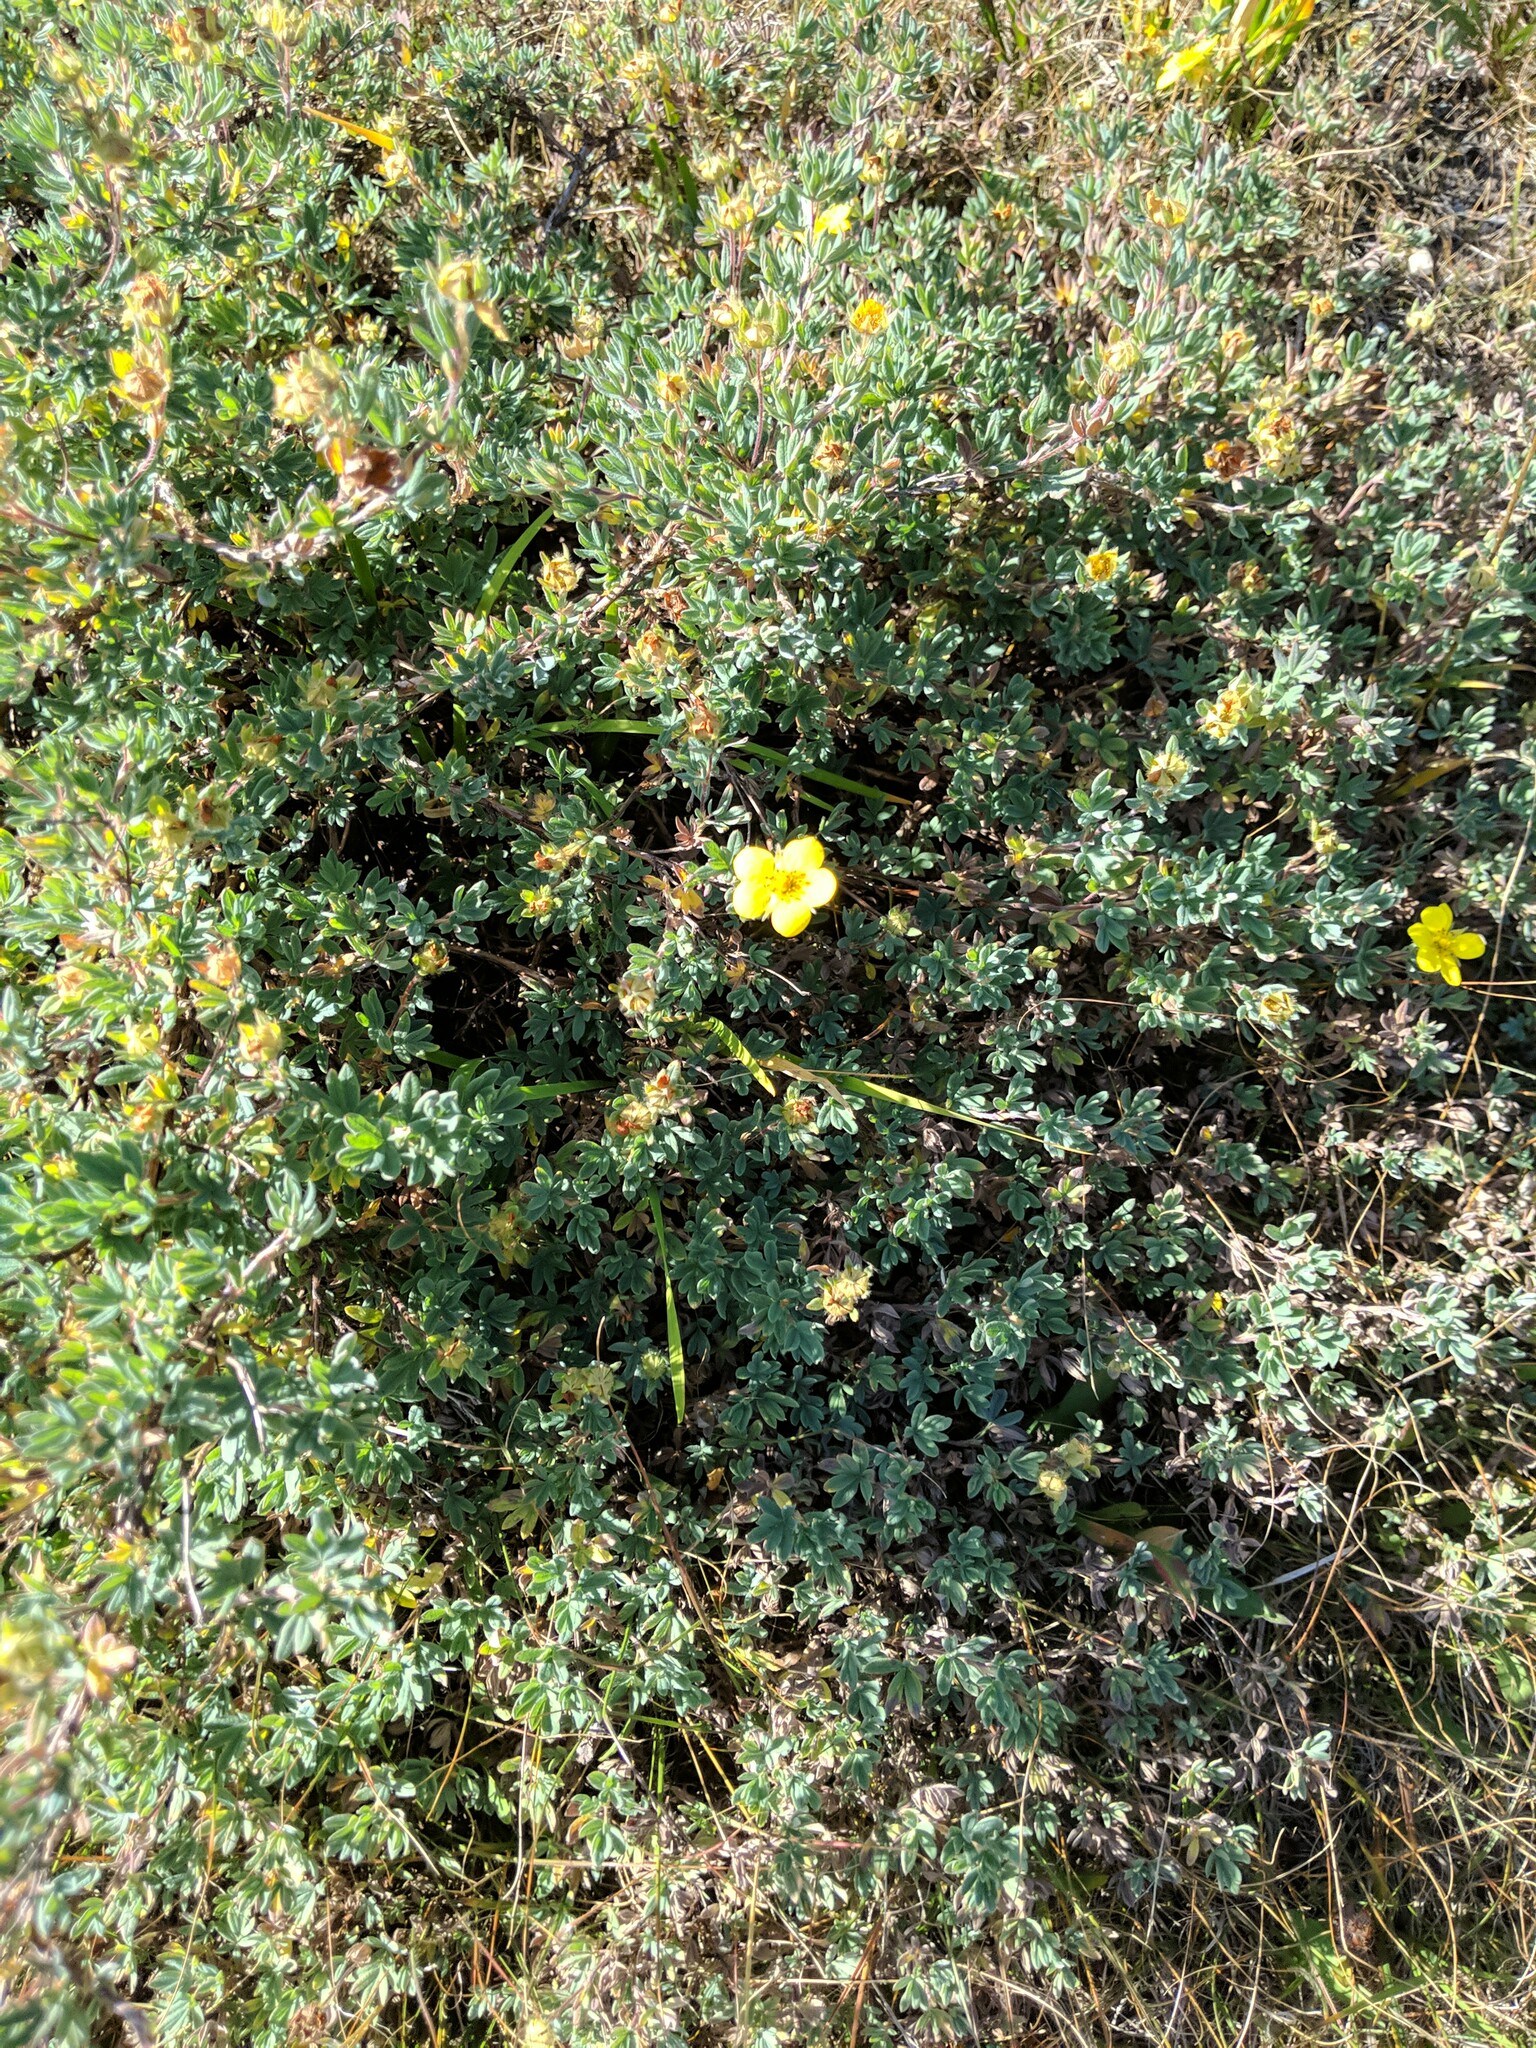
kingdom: Plantae
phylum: Tracheophyta
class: Magnoliopsida
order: Rosales
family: Rosaceae
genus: Dasiphora
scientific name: Dasiphora fruticosa
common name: Shrubby cinquefoil
